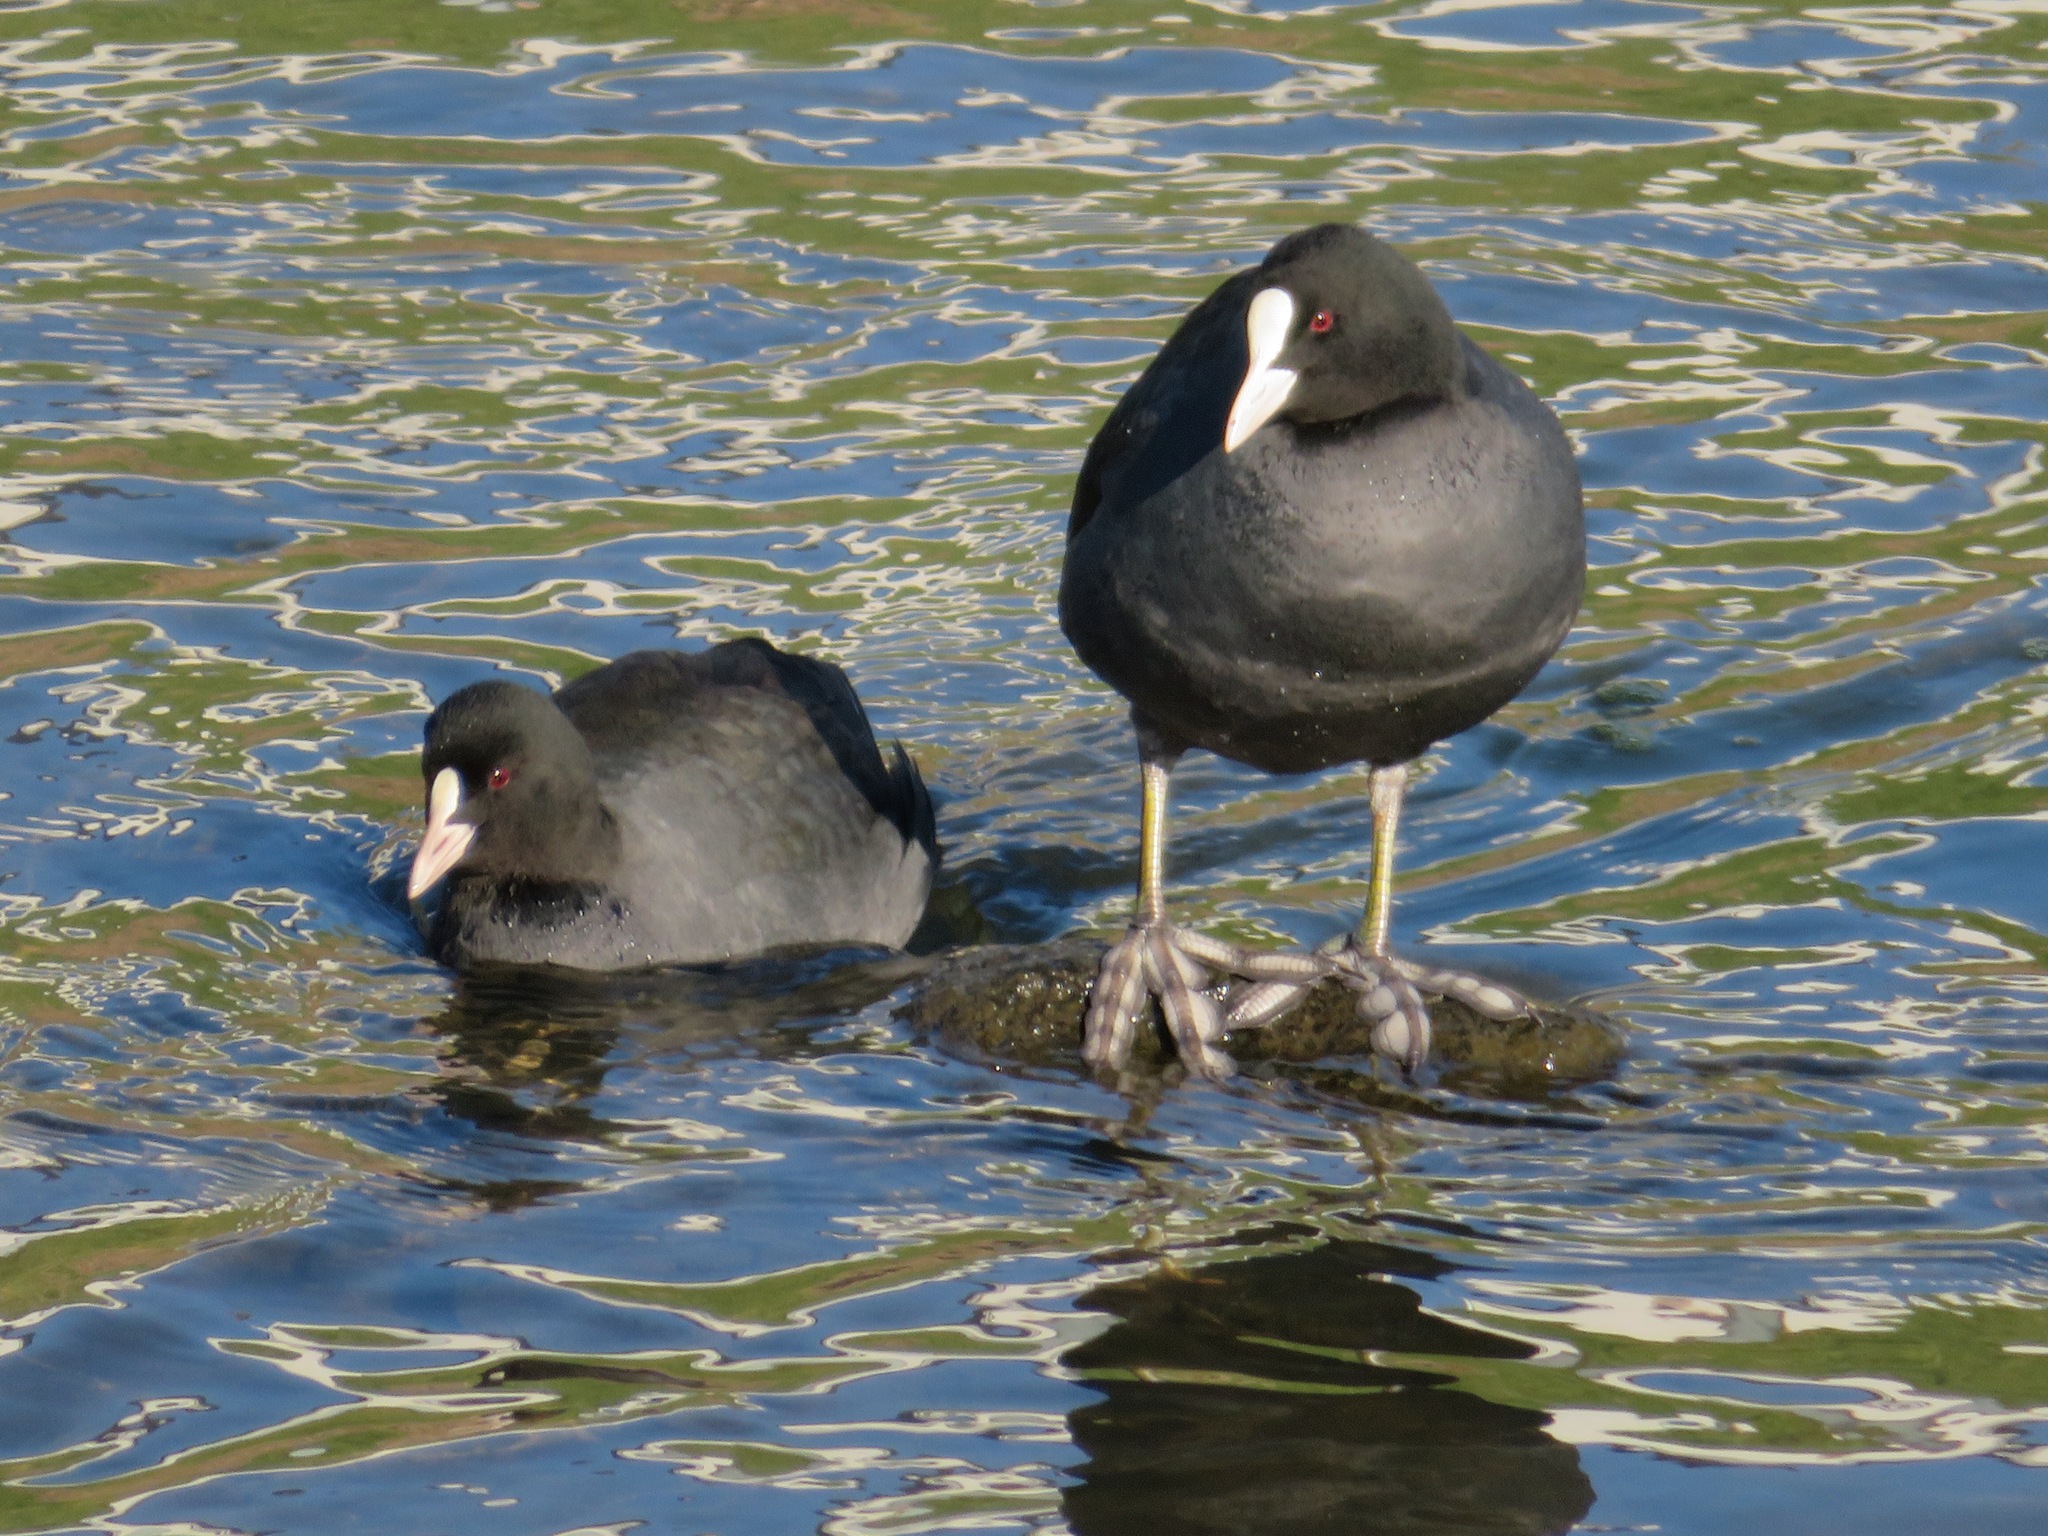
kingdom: Animalia
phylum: Chordata
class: Aves
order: Gruiformes
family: Rallidae
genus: Fulica
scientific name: Fulica atra
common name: Eurasian coot
